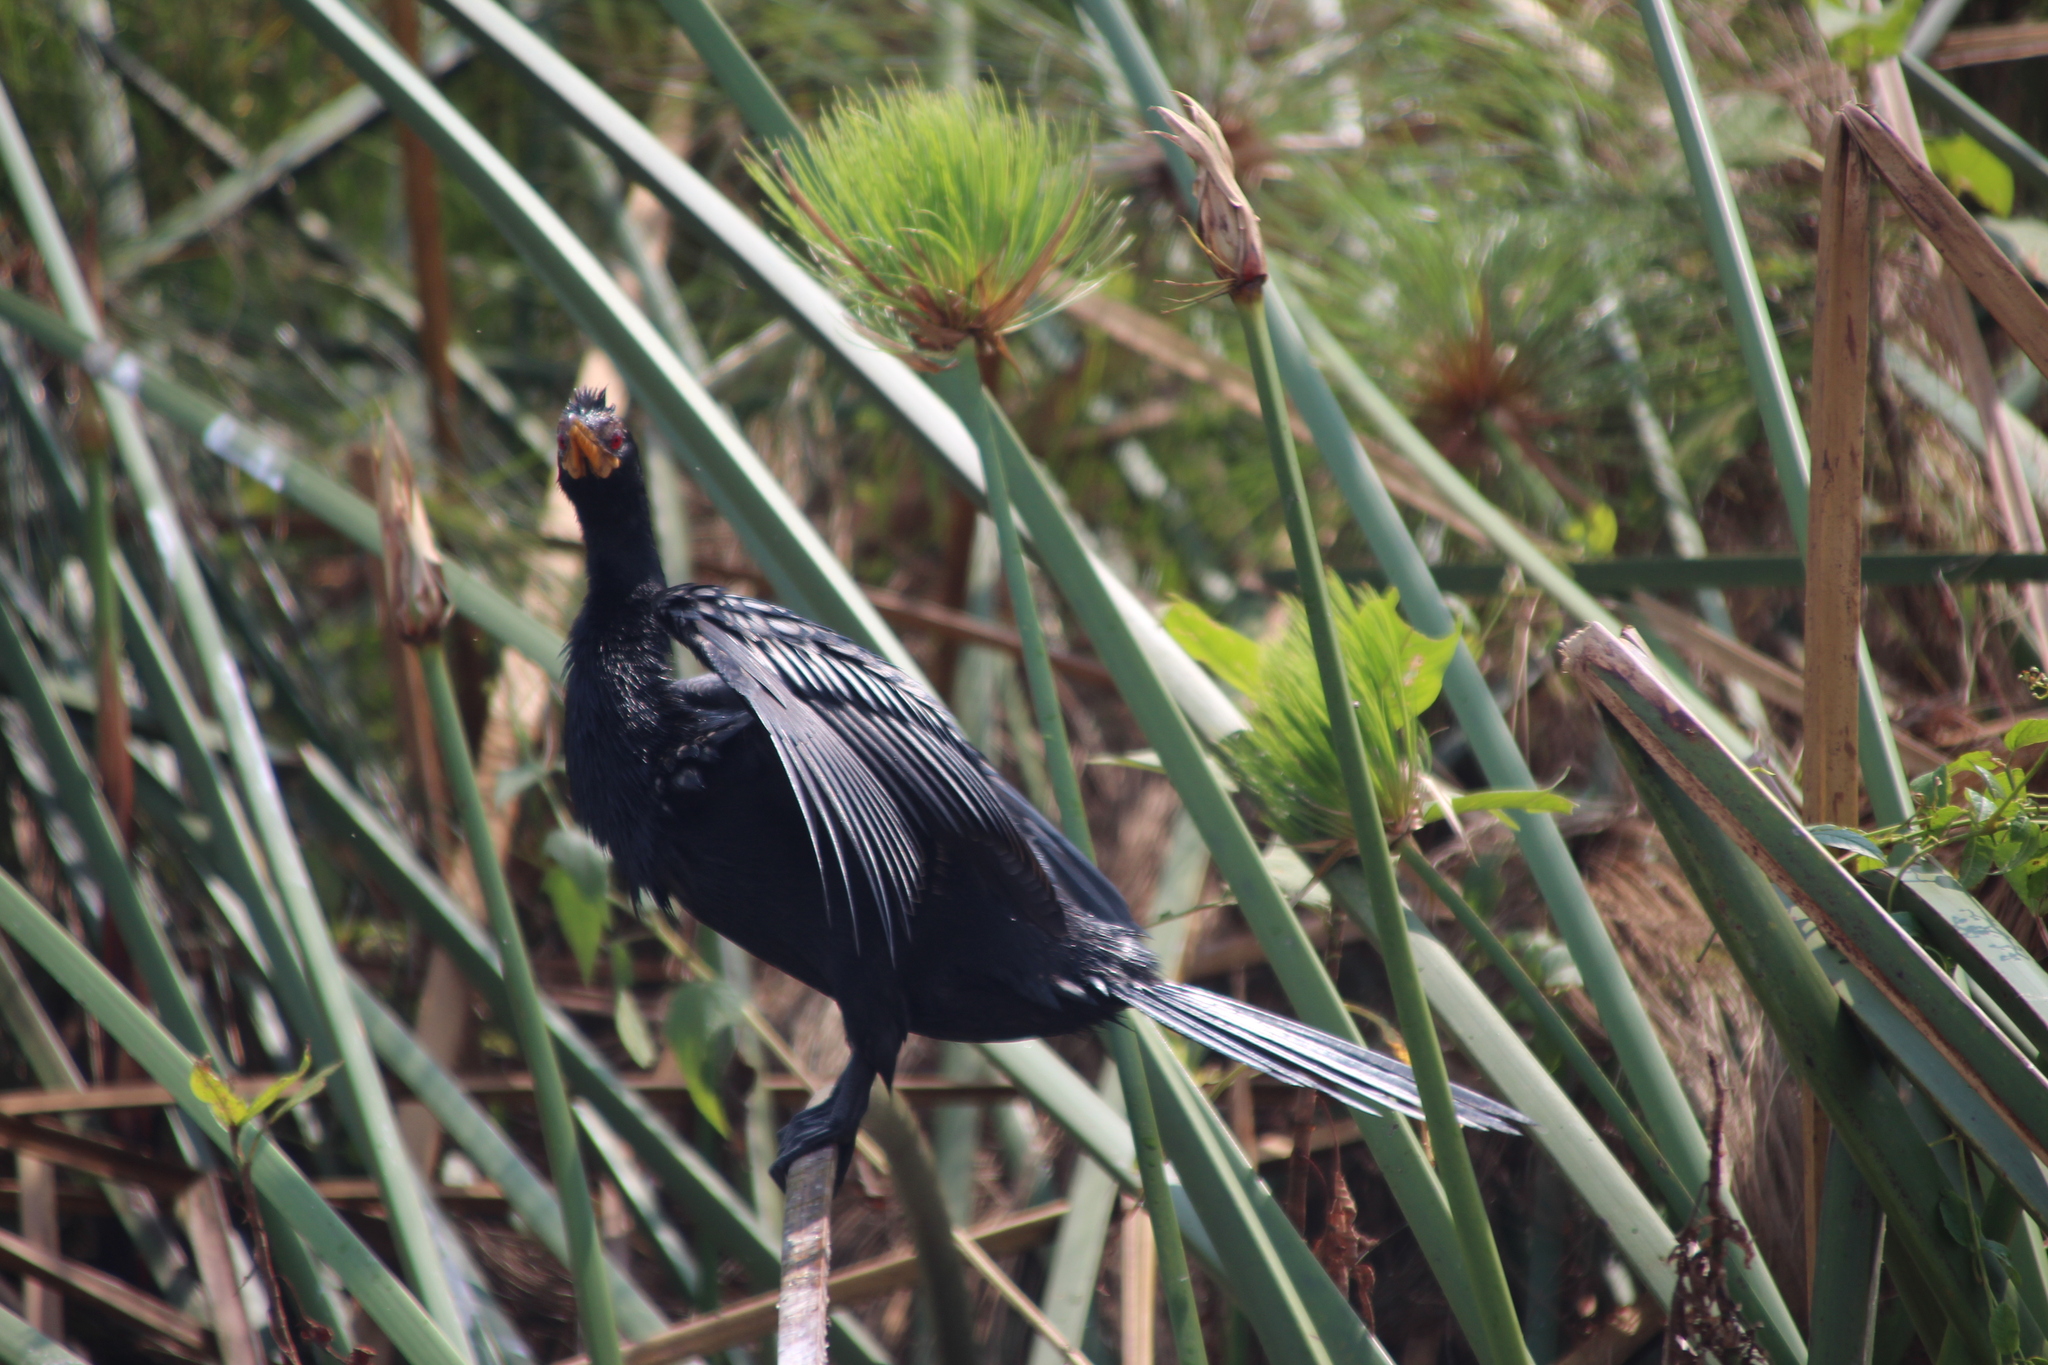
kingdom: Animalia
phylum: Chordata
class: Aves
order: Suliformes
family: Phalacrocoracidae
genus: Microcarbo
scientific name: Microcarbo africanus
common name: Long-tailed cormorant
